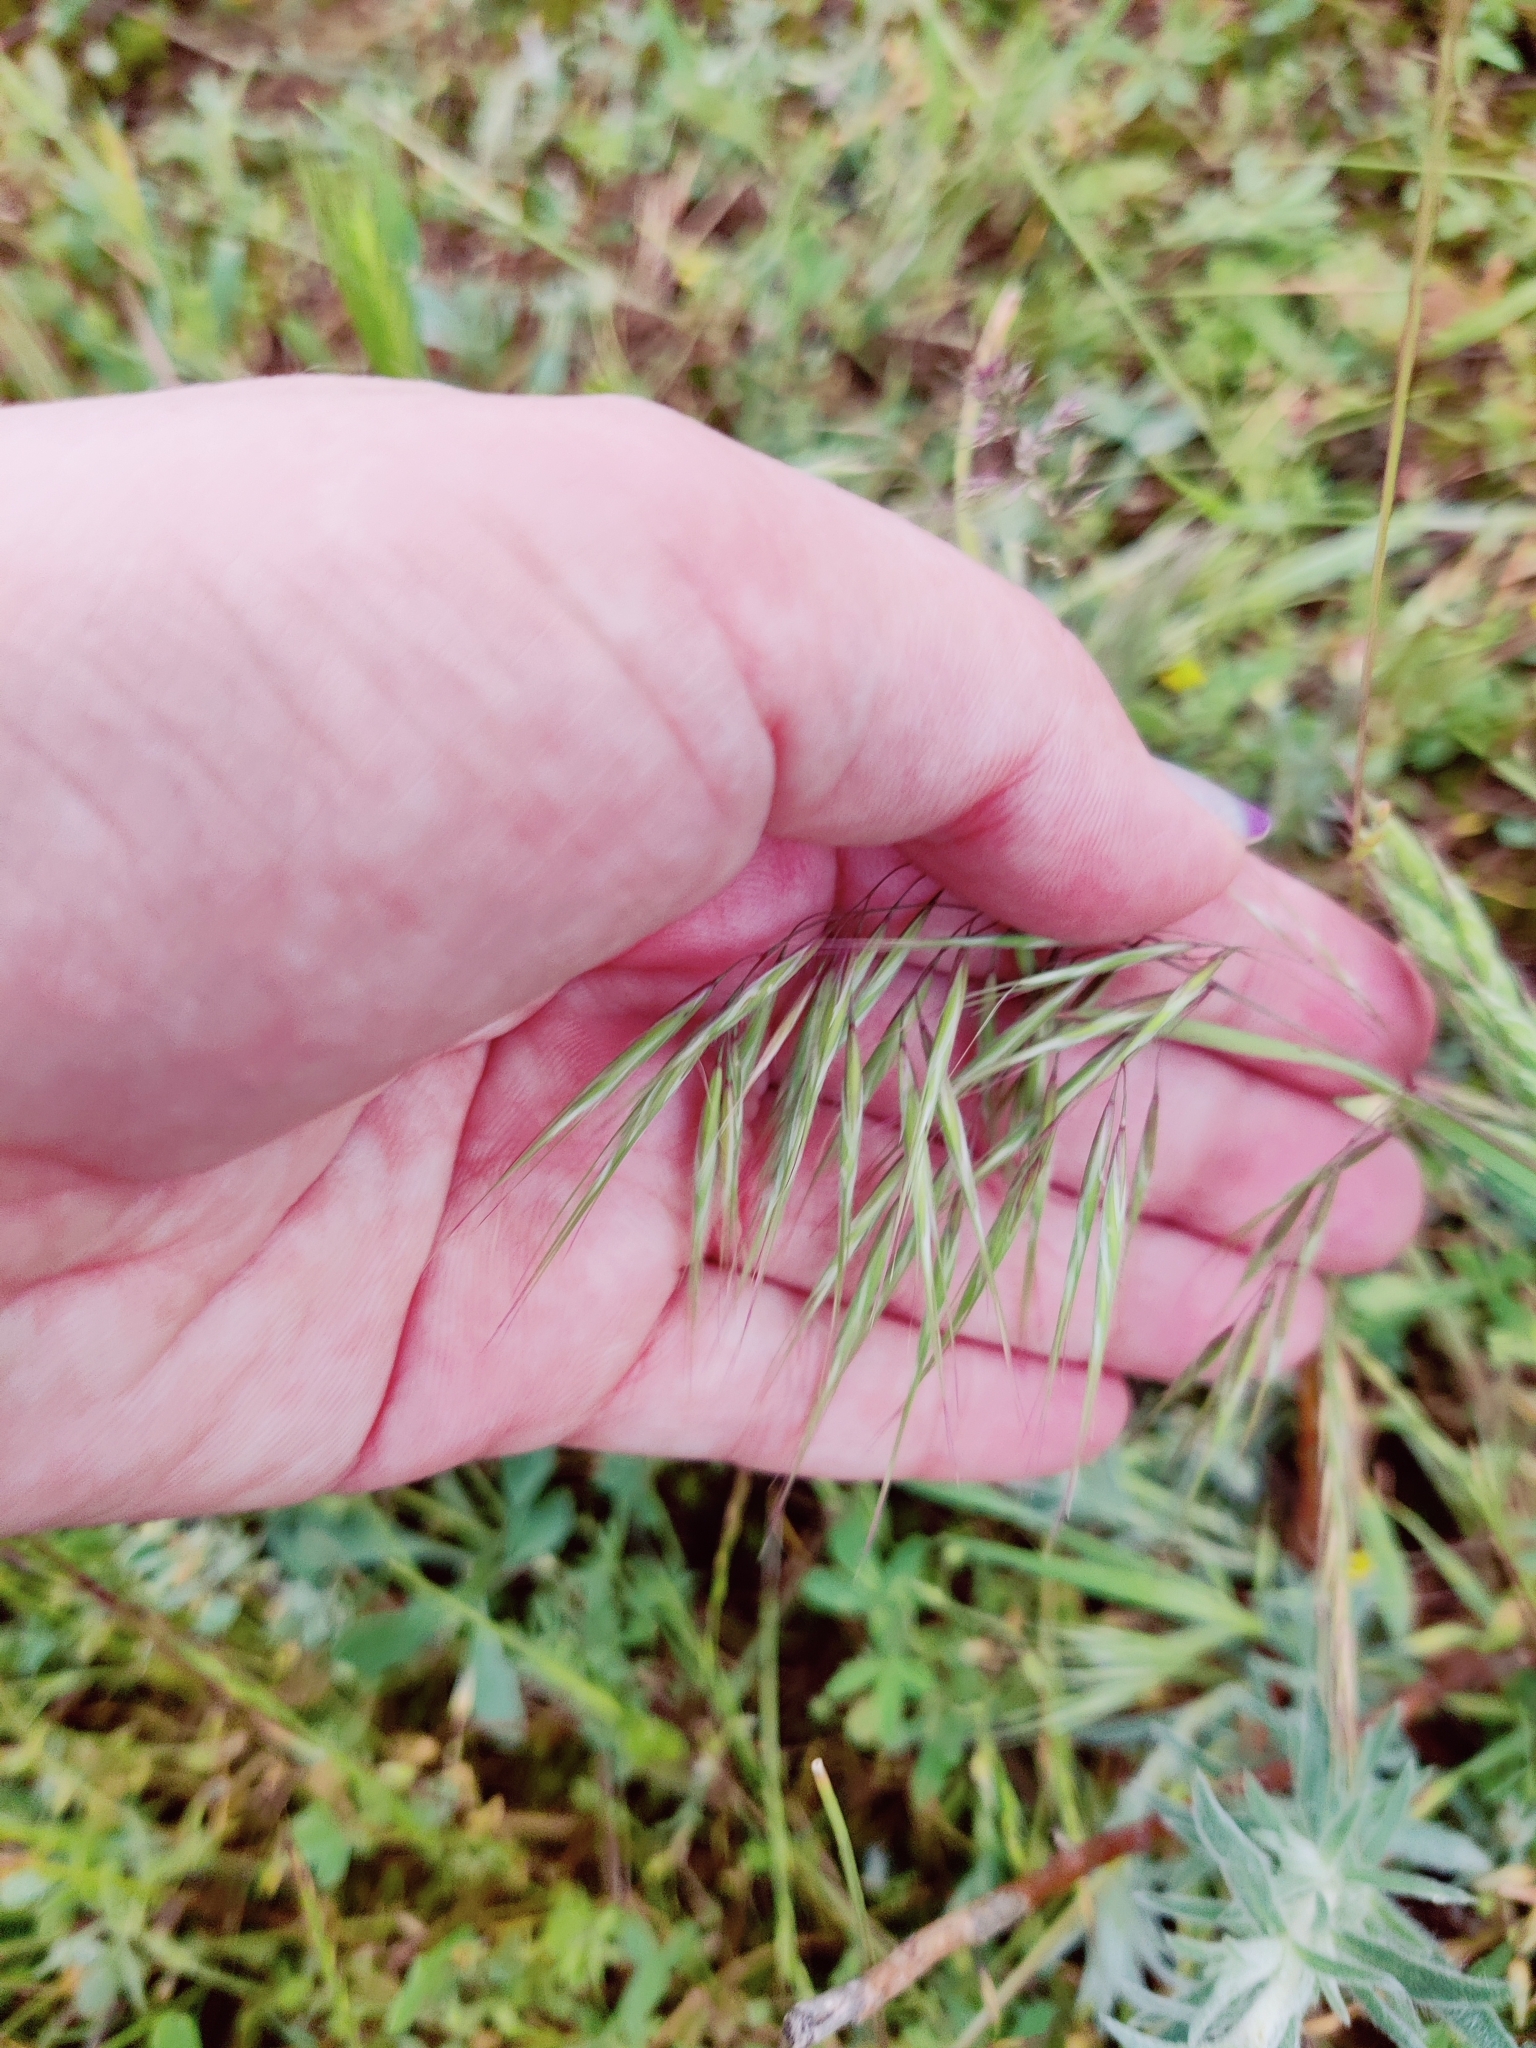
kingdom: Plantae
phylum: Tracheophyta
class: Liliopsida
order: Poales
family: Poaceae
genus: Bromus
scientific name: Bromus tectorum
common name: Cheatgrass
